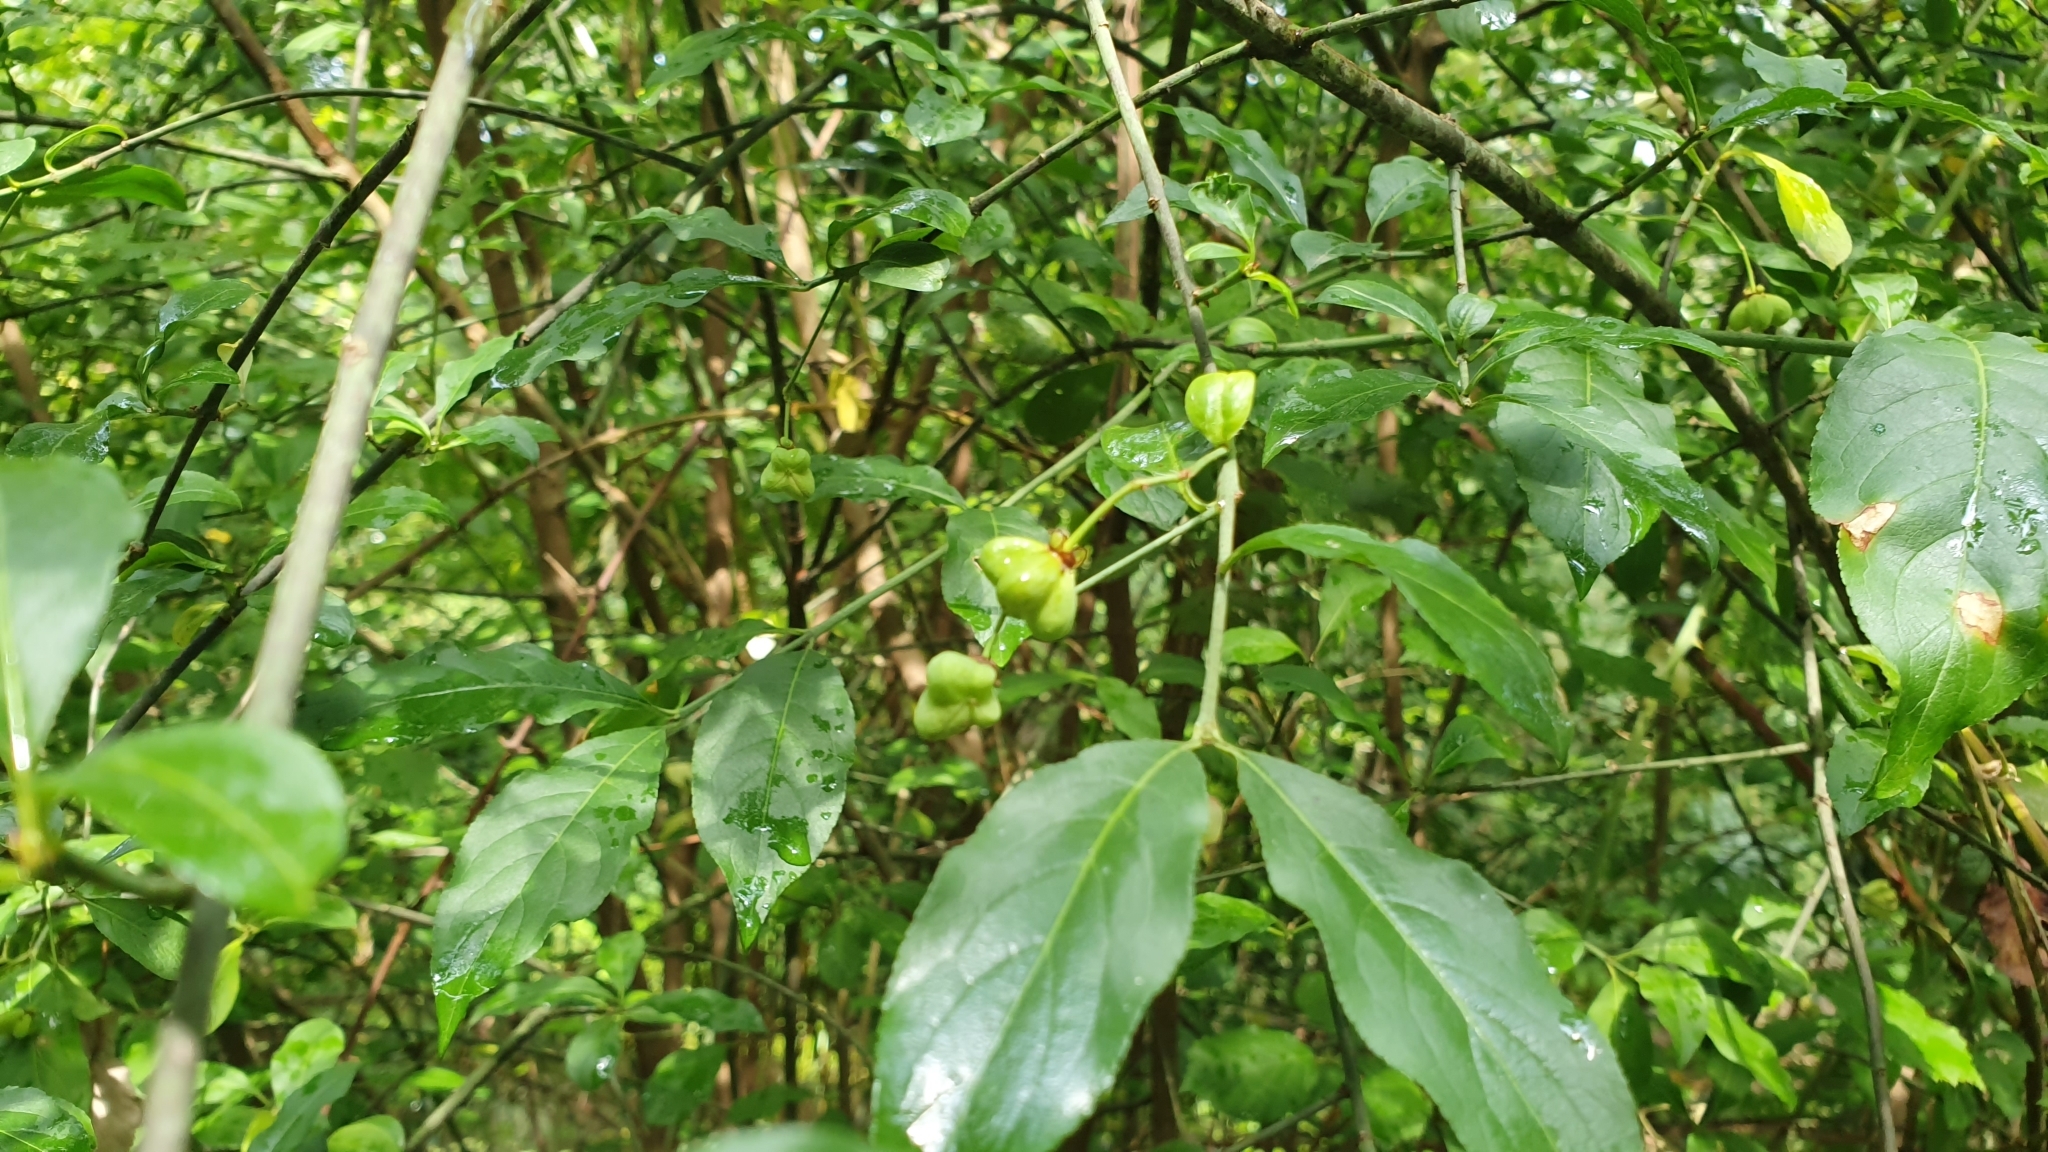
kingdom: Plantae
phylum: Tracheophyta
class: Magnoliopsida
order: Celastrales
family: Celastraceae
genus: Euonymus
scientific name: Euonymus europaeus
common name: Spindle
